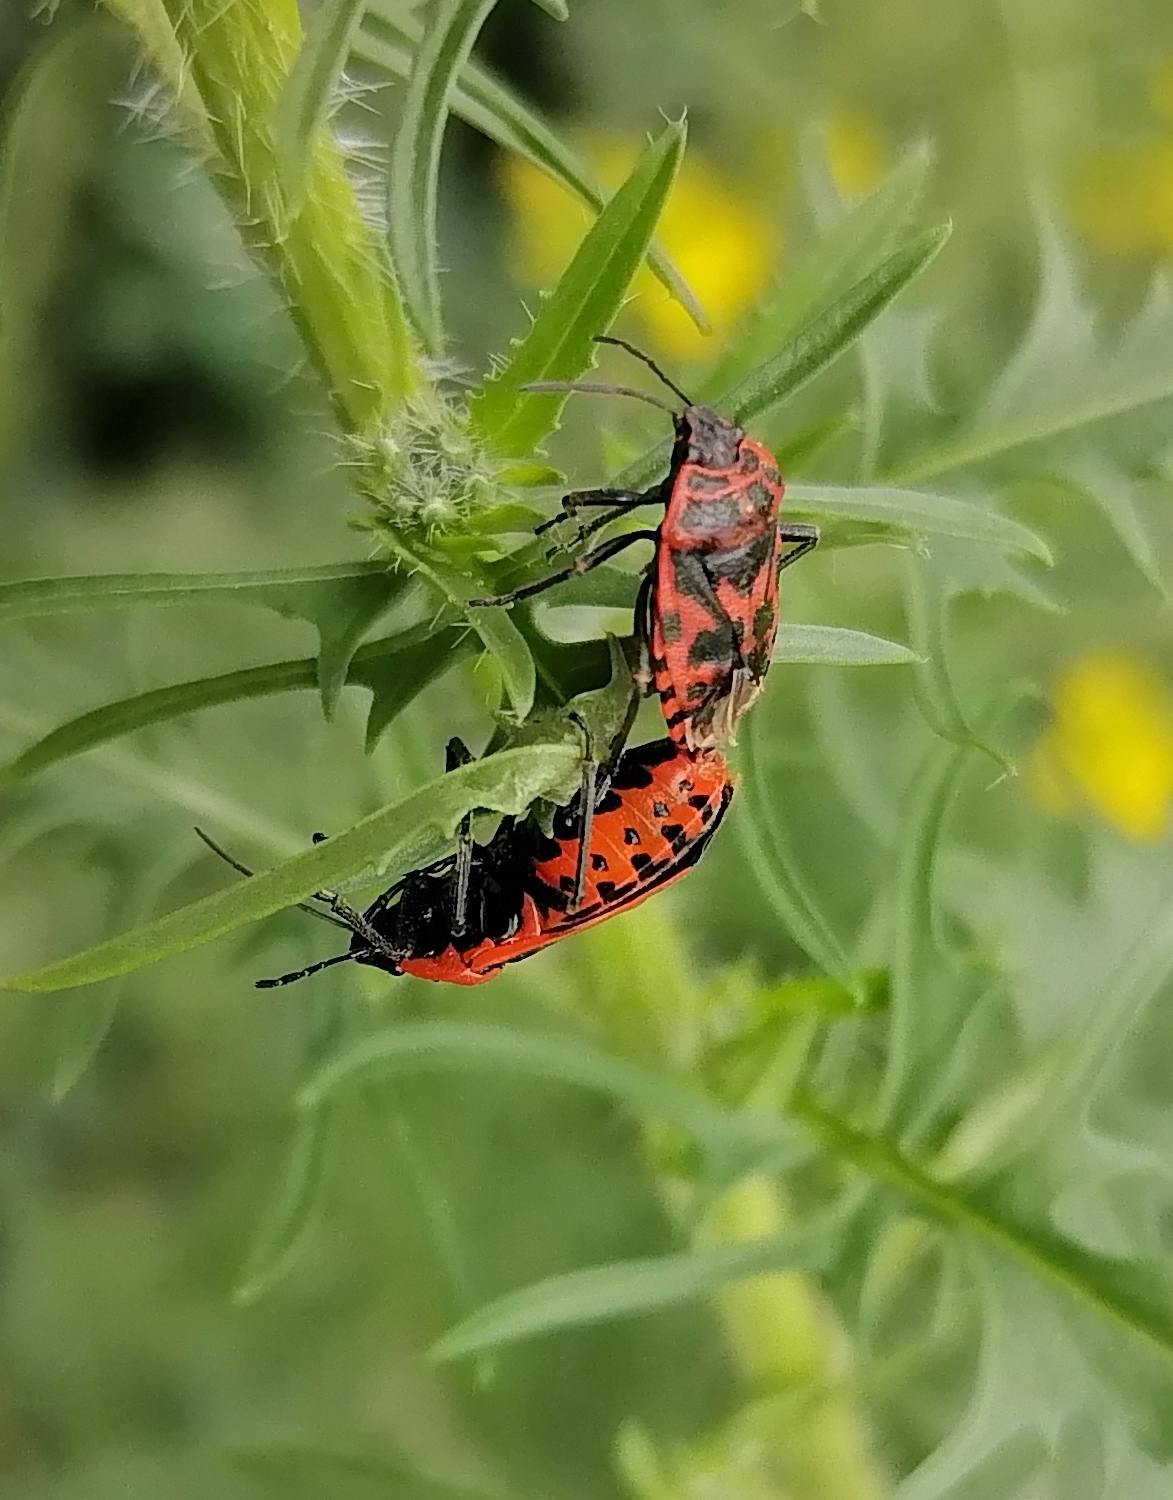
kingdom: Animalia
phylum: Arthropoda
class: Insecta
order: Hemiptera
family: Pentatomidae
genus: Eurydema
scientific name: Eurydema ventralis
